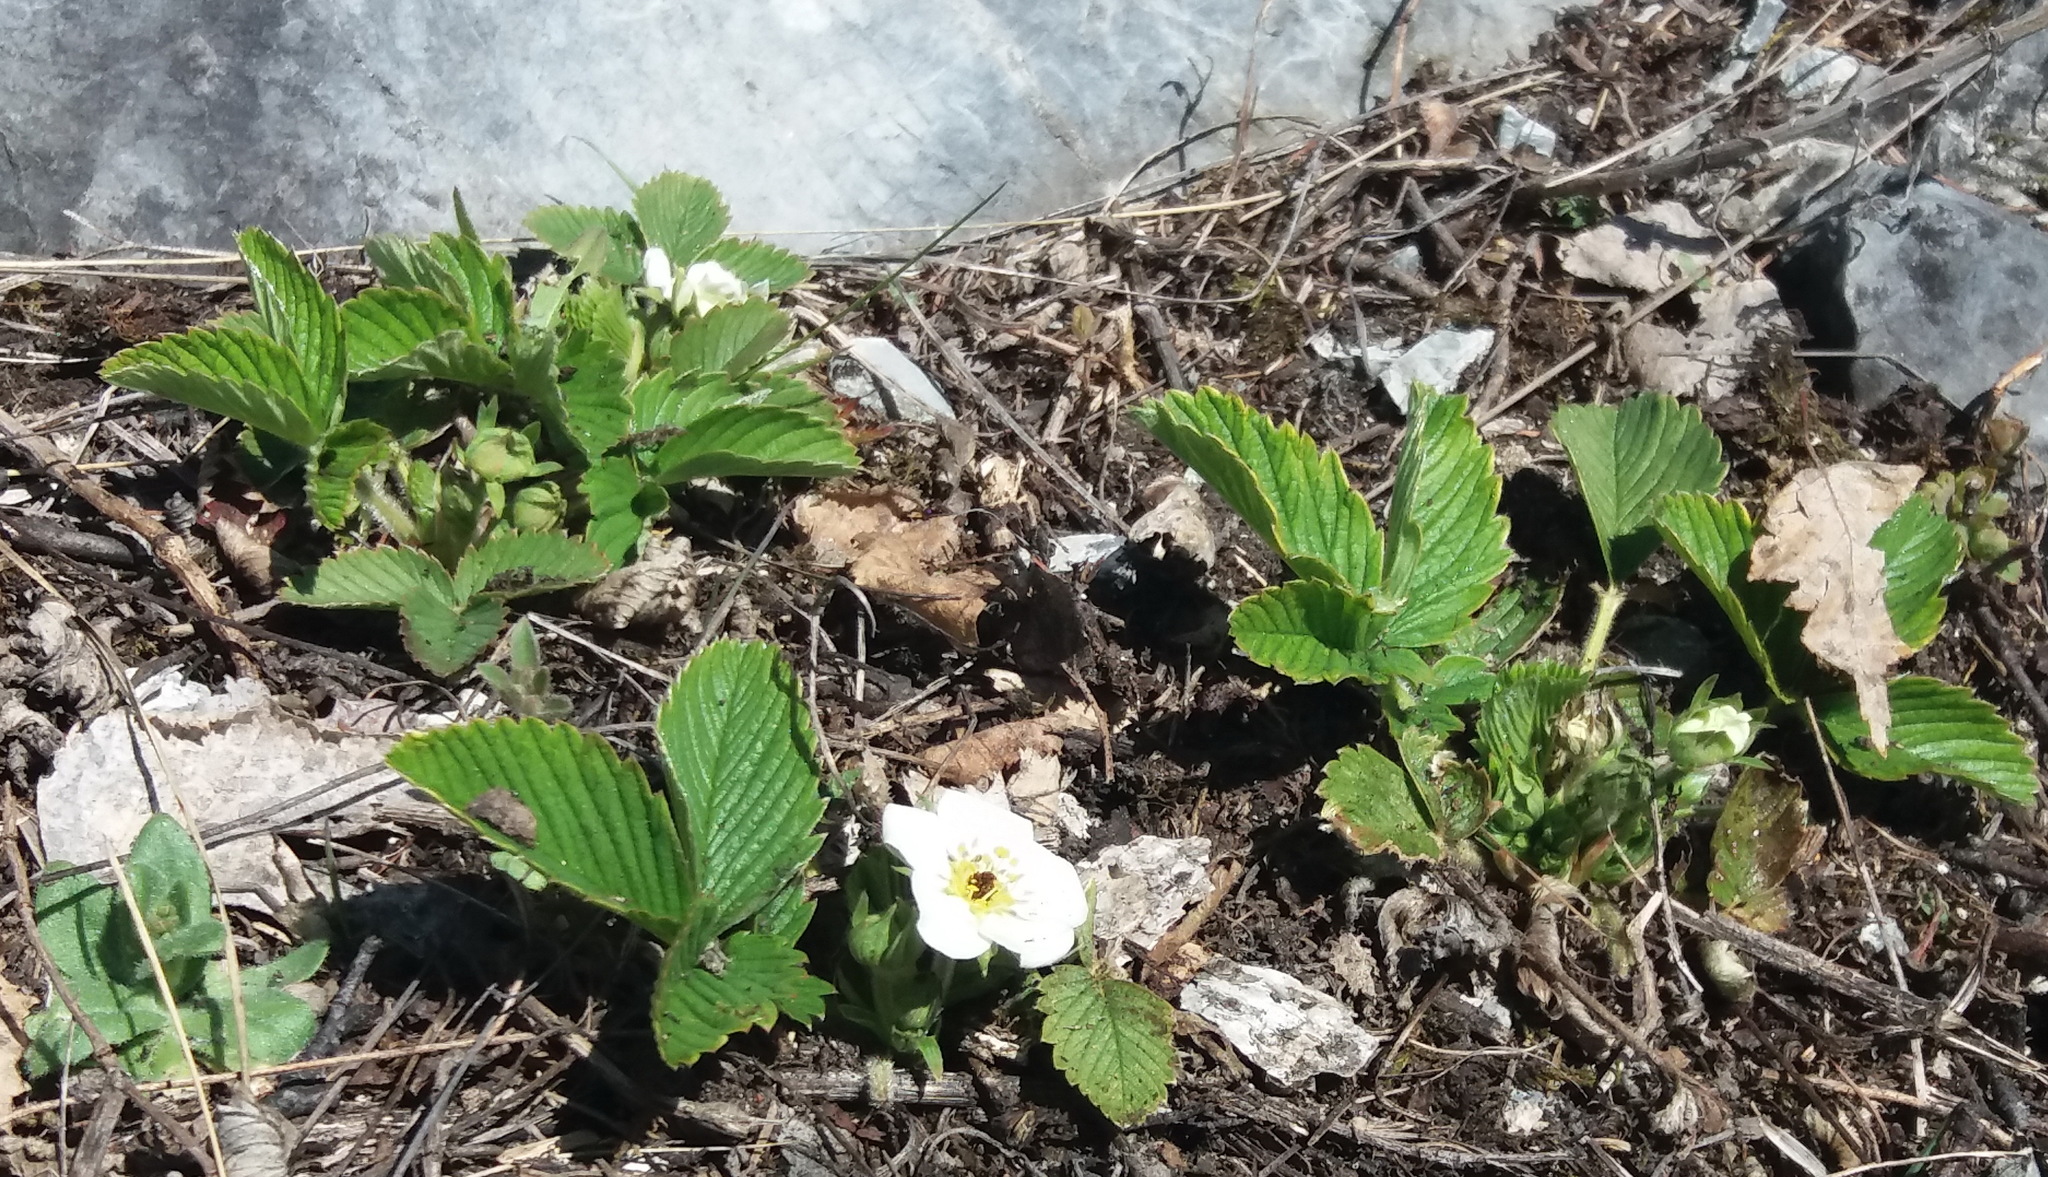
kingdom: Plantae
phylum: Tracheophyta
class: Magnoliopsida
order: Rosales
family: Rosaceae
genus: Fragaria
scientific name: Fragaria viridis
